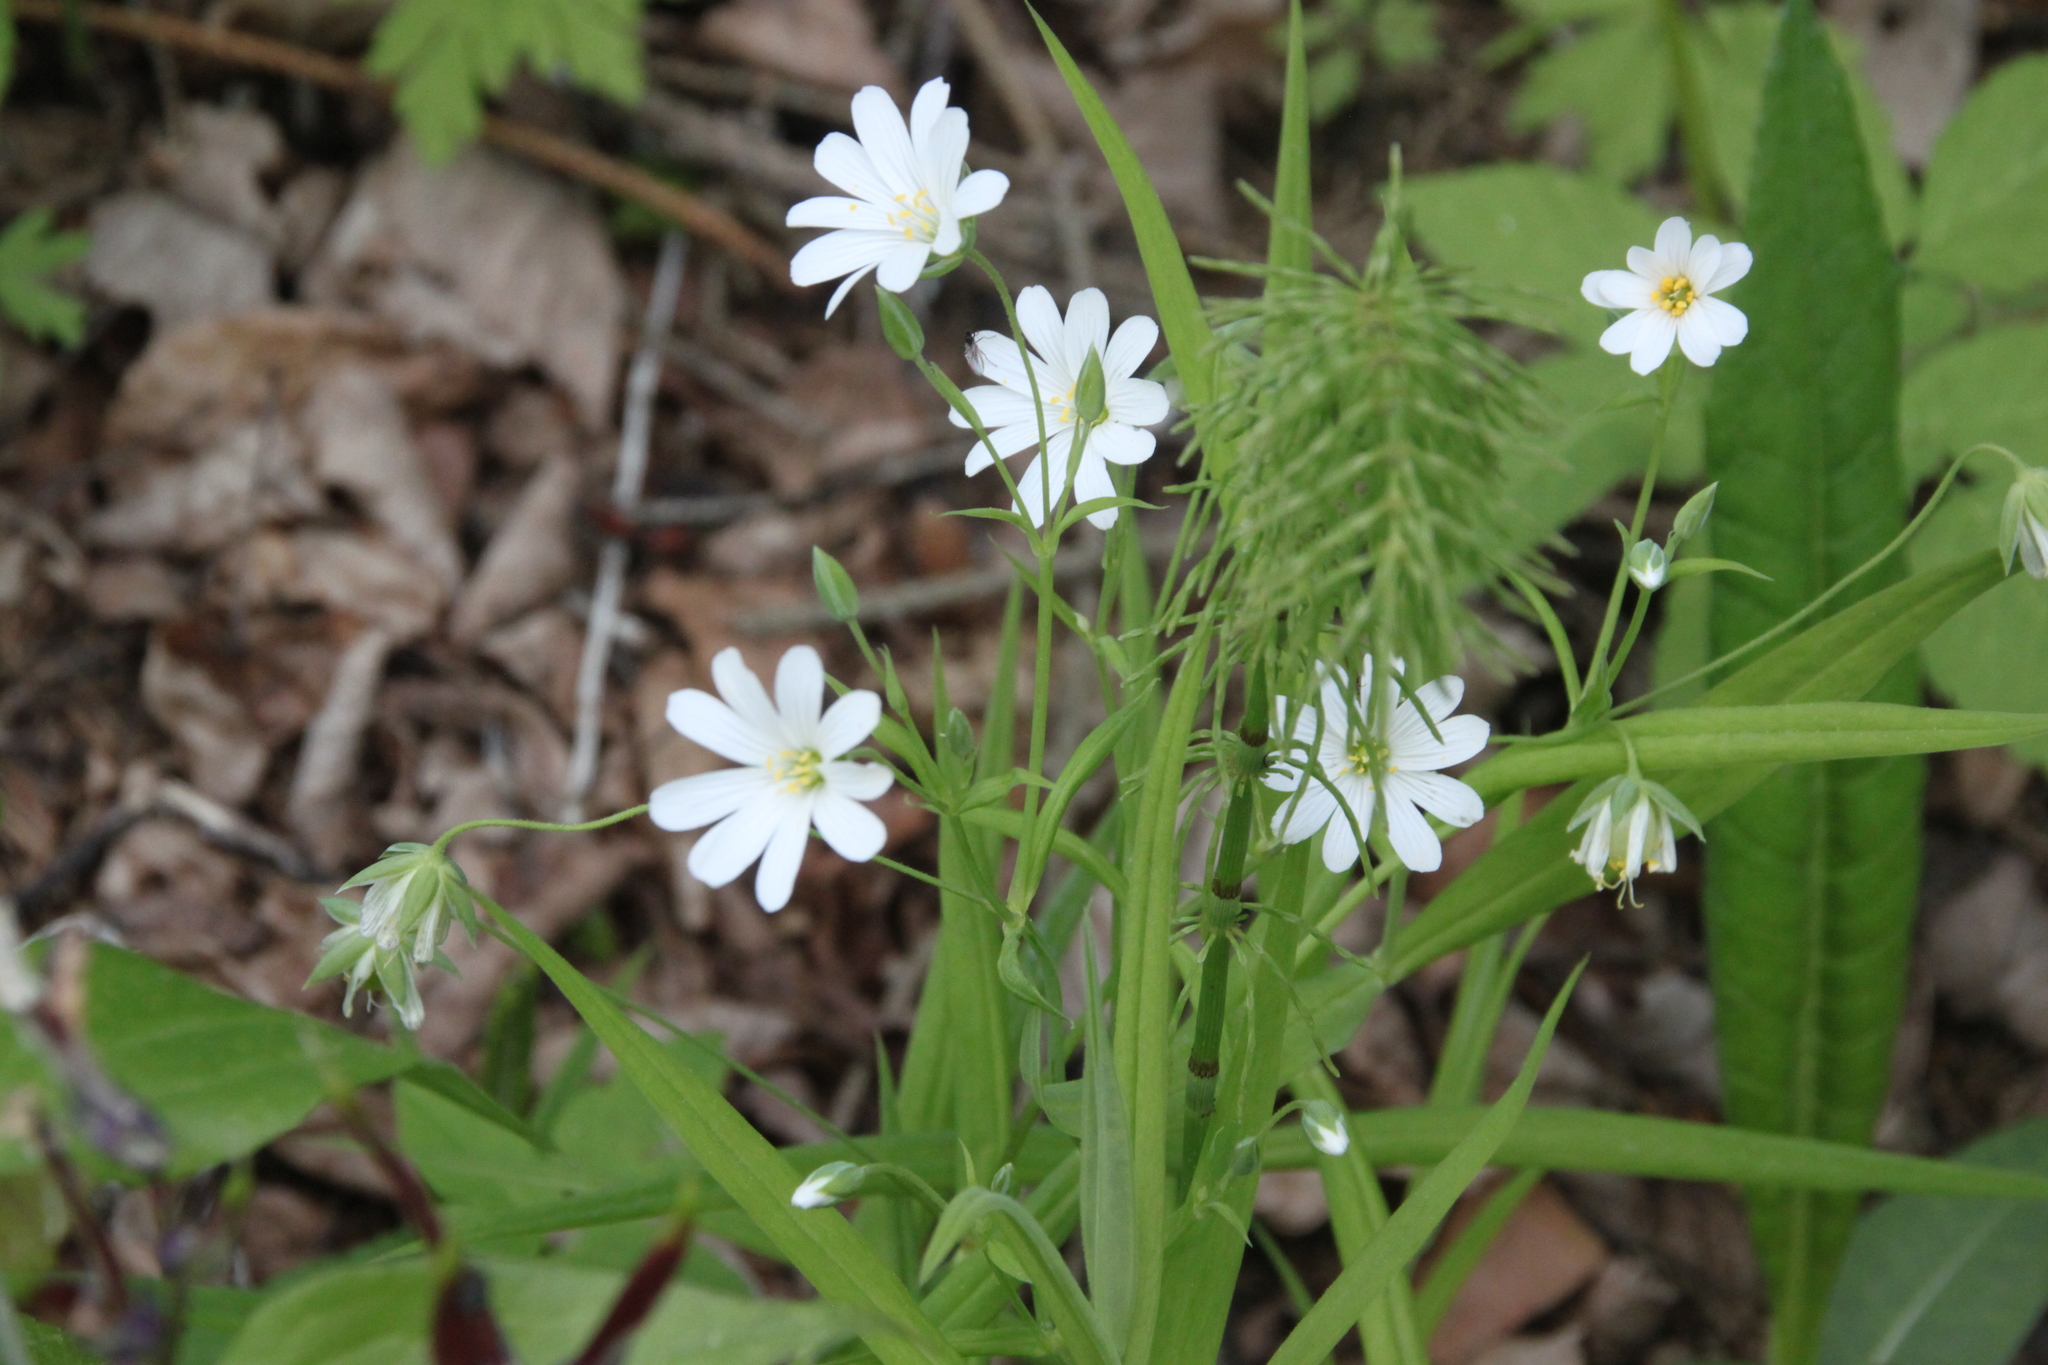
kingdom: Plantae
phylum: Tracheophyta
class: Magnoliopsida
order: Caryophyllales
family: Caryophyllaceae
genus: Rabelera
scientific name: Rabelera holostea
